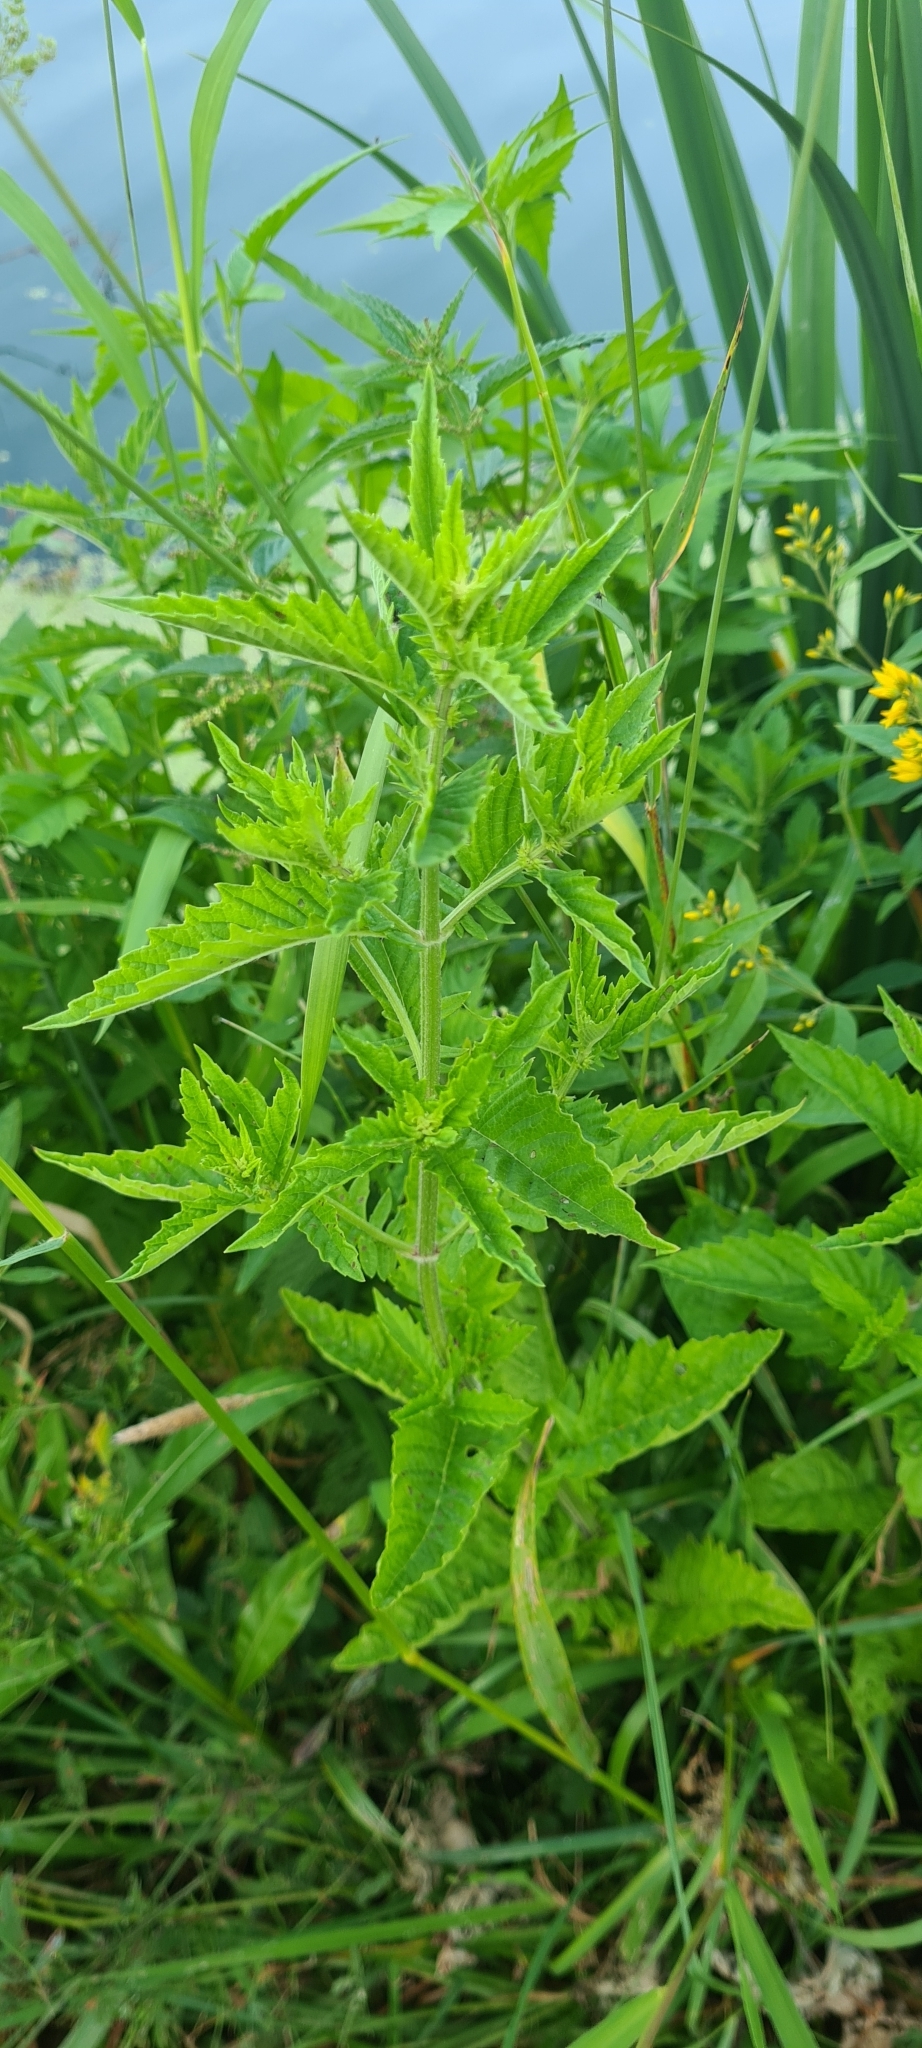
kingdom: Plantae
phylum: Tracheophyta
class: Magnoliopsida
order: Lamiales
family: Lamiaceae
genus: Lycopus
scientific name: Lycopus europaeus
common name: European bugleweed
